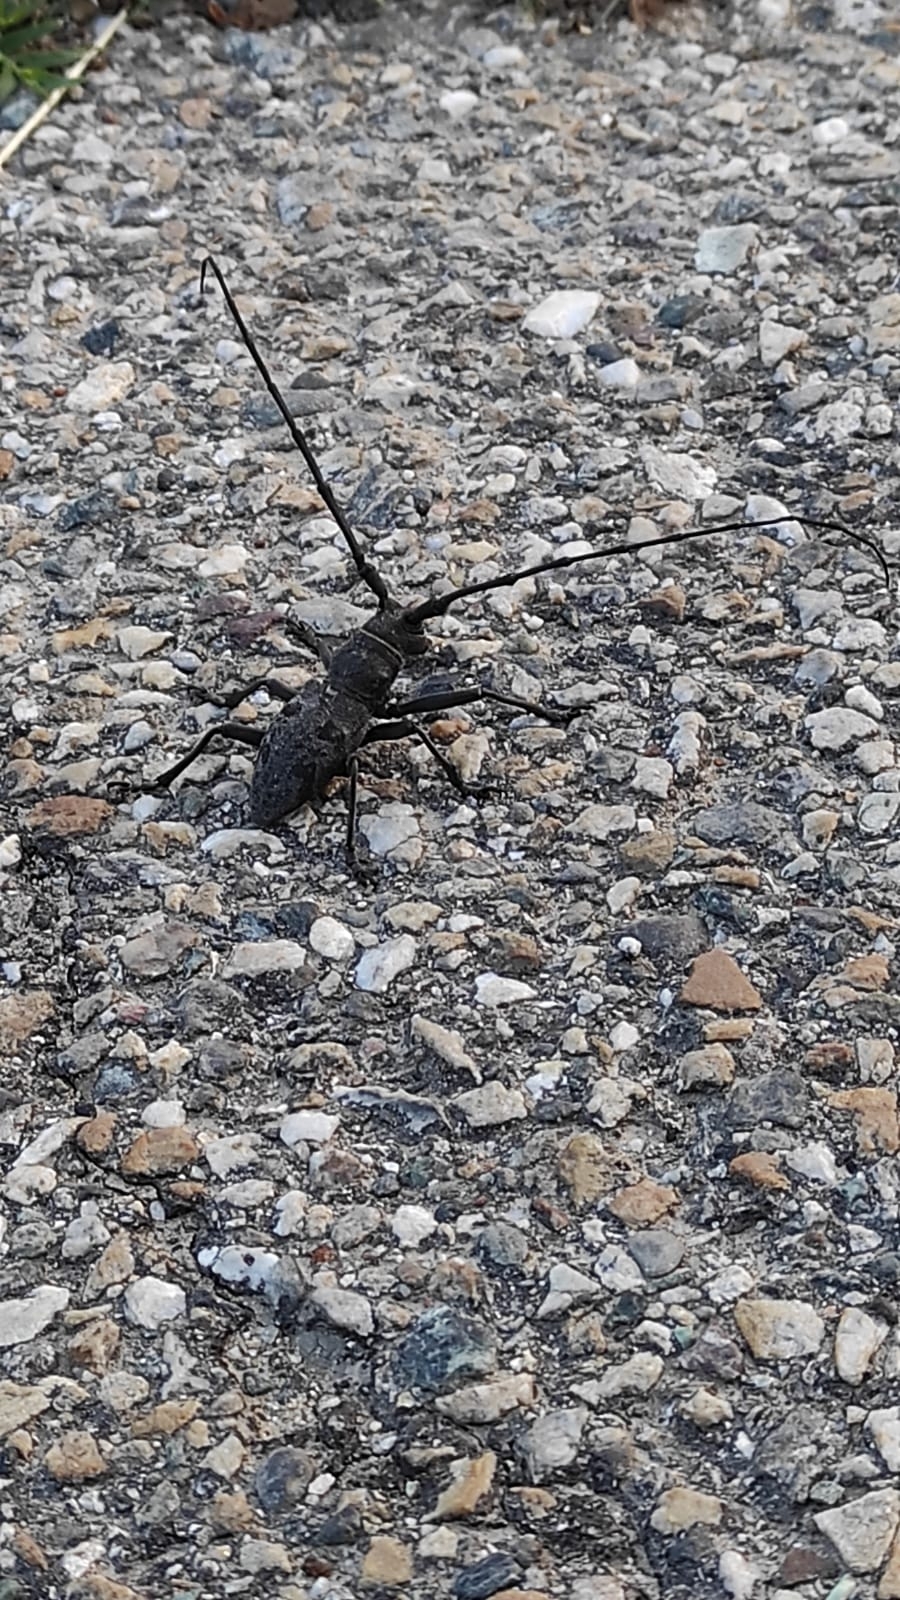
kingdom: Animalia
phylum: Arthropoda
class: Insecta
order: Coleoptera
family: Cerambycidae
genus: Morimus
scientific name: Morimus asper
